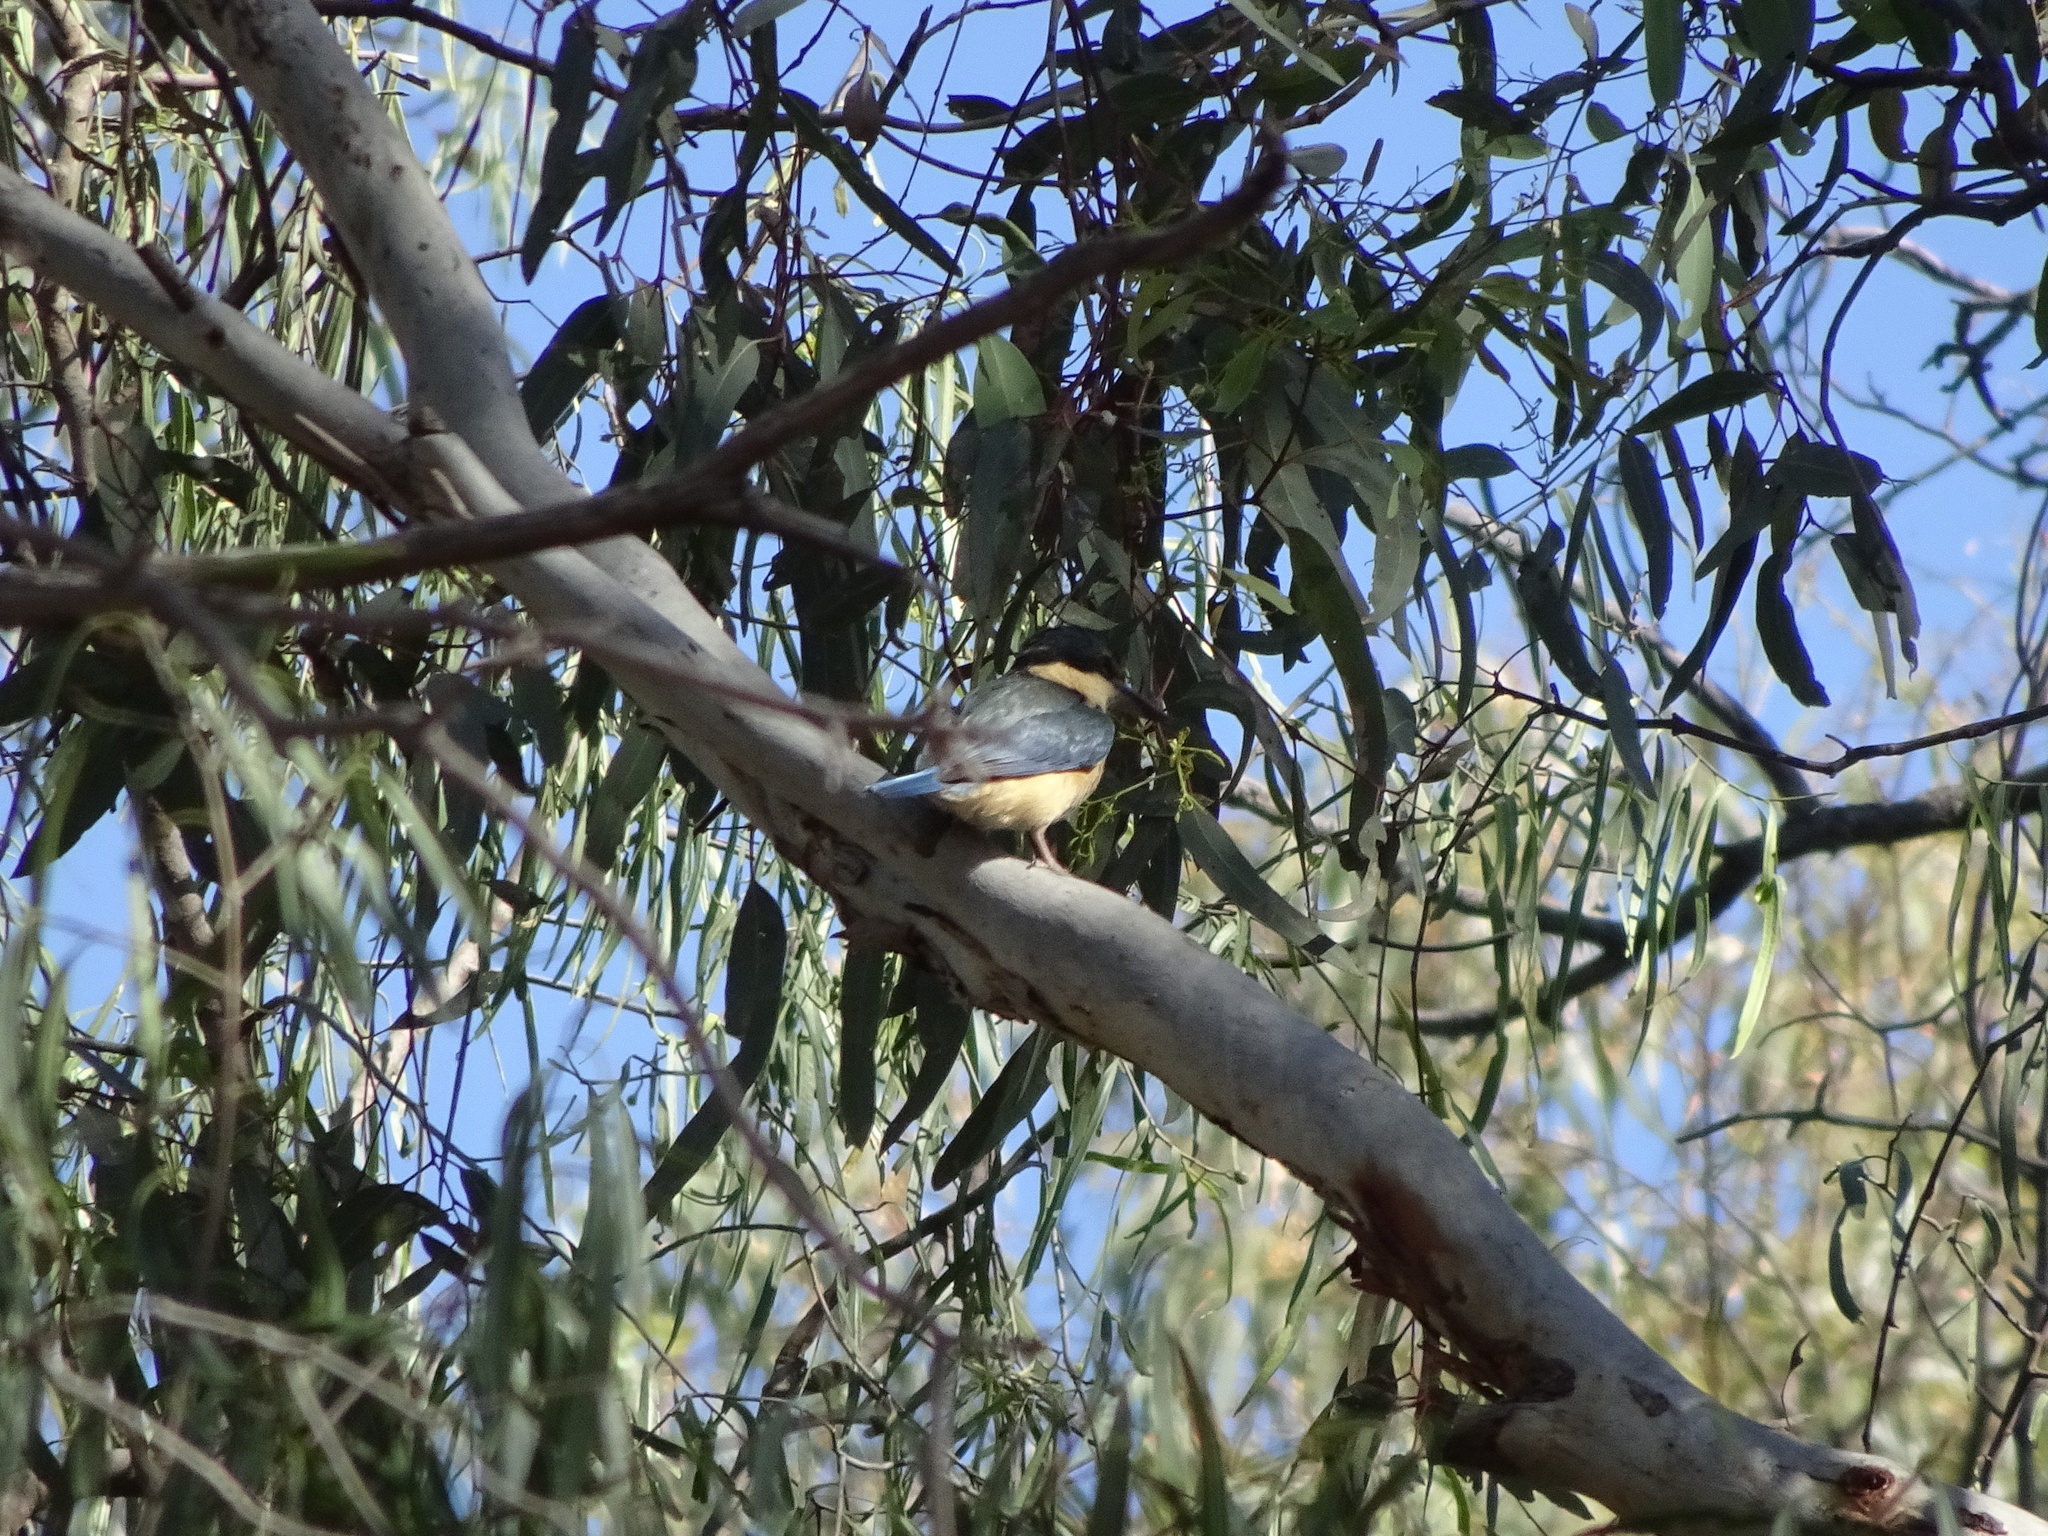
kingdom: Animalia
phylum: Chordata
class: Aves
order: Coraciiformes
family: Alcedinidae
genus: Todiramphus
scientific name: Todiramphus sanctus
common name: Sacred kingfisher
